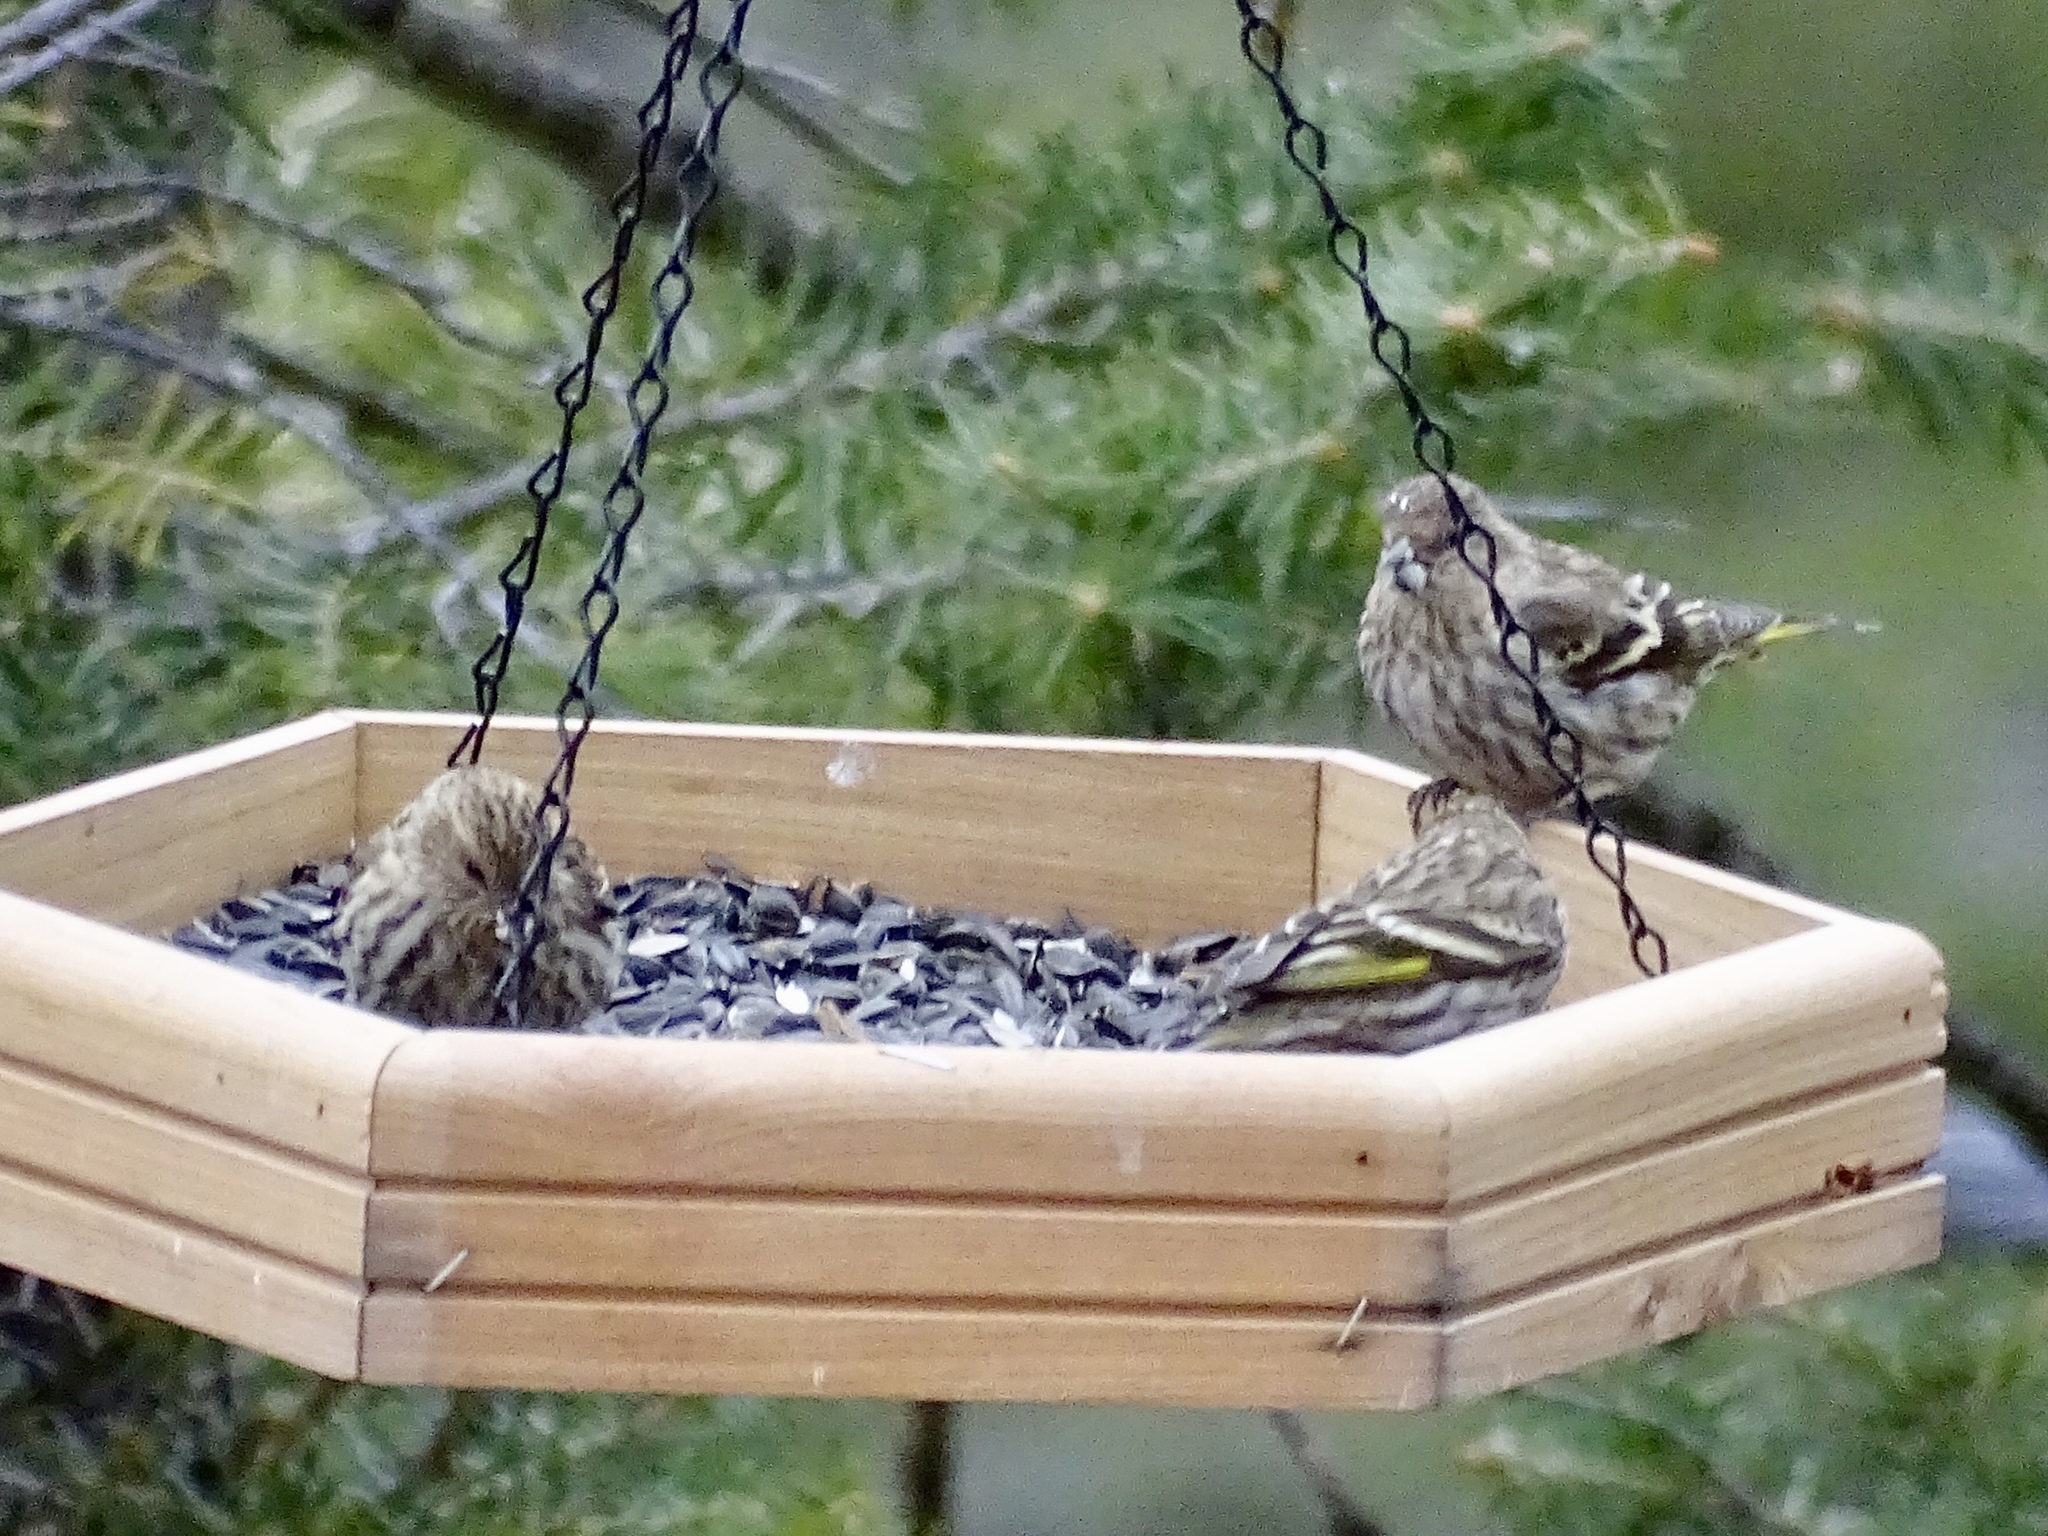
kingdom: Animalia
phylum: Chordata
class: Aves
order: Passeriformes
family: Fringillidae
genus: Spinus
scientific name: Spinus pinus
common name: Pine siskin
